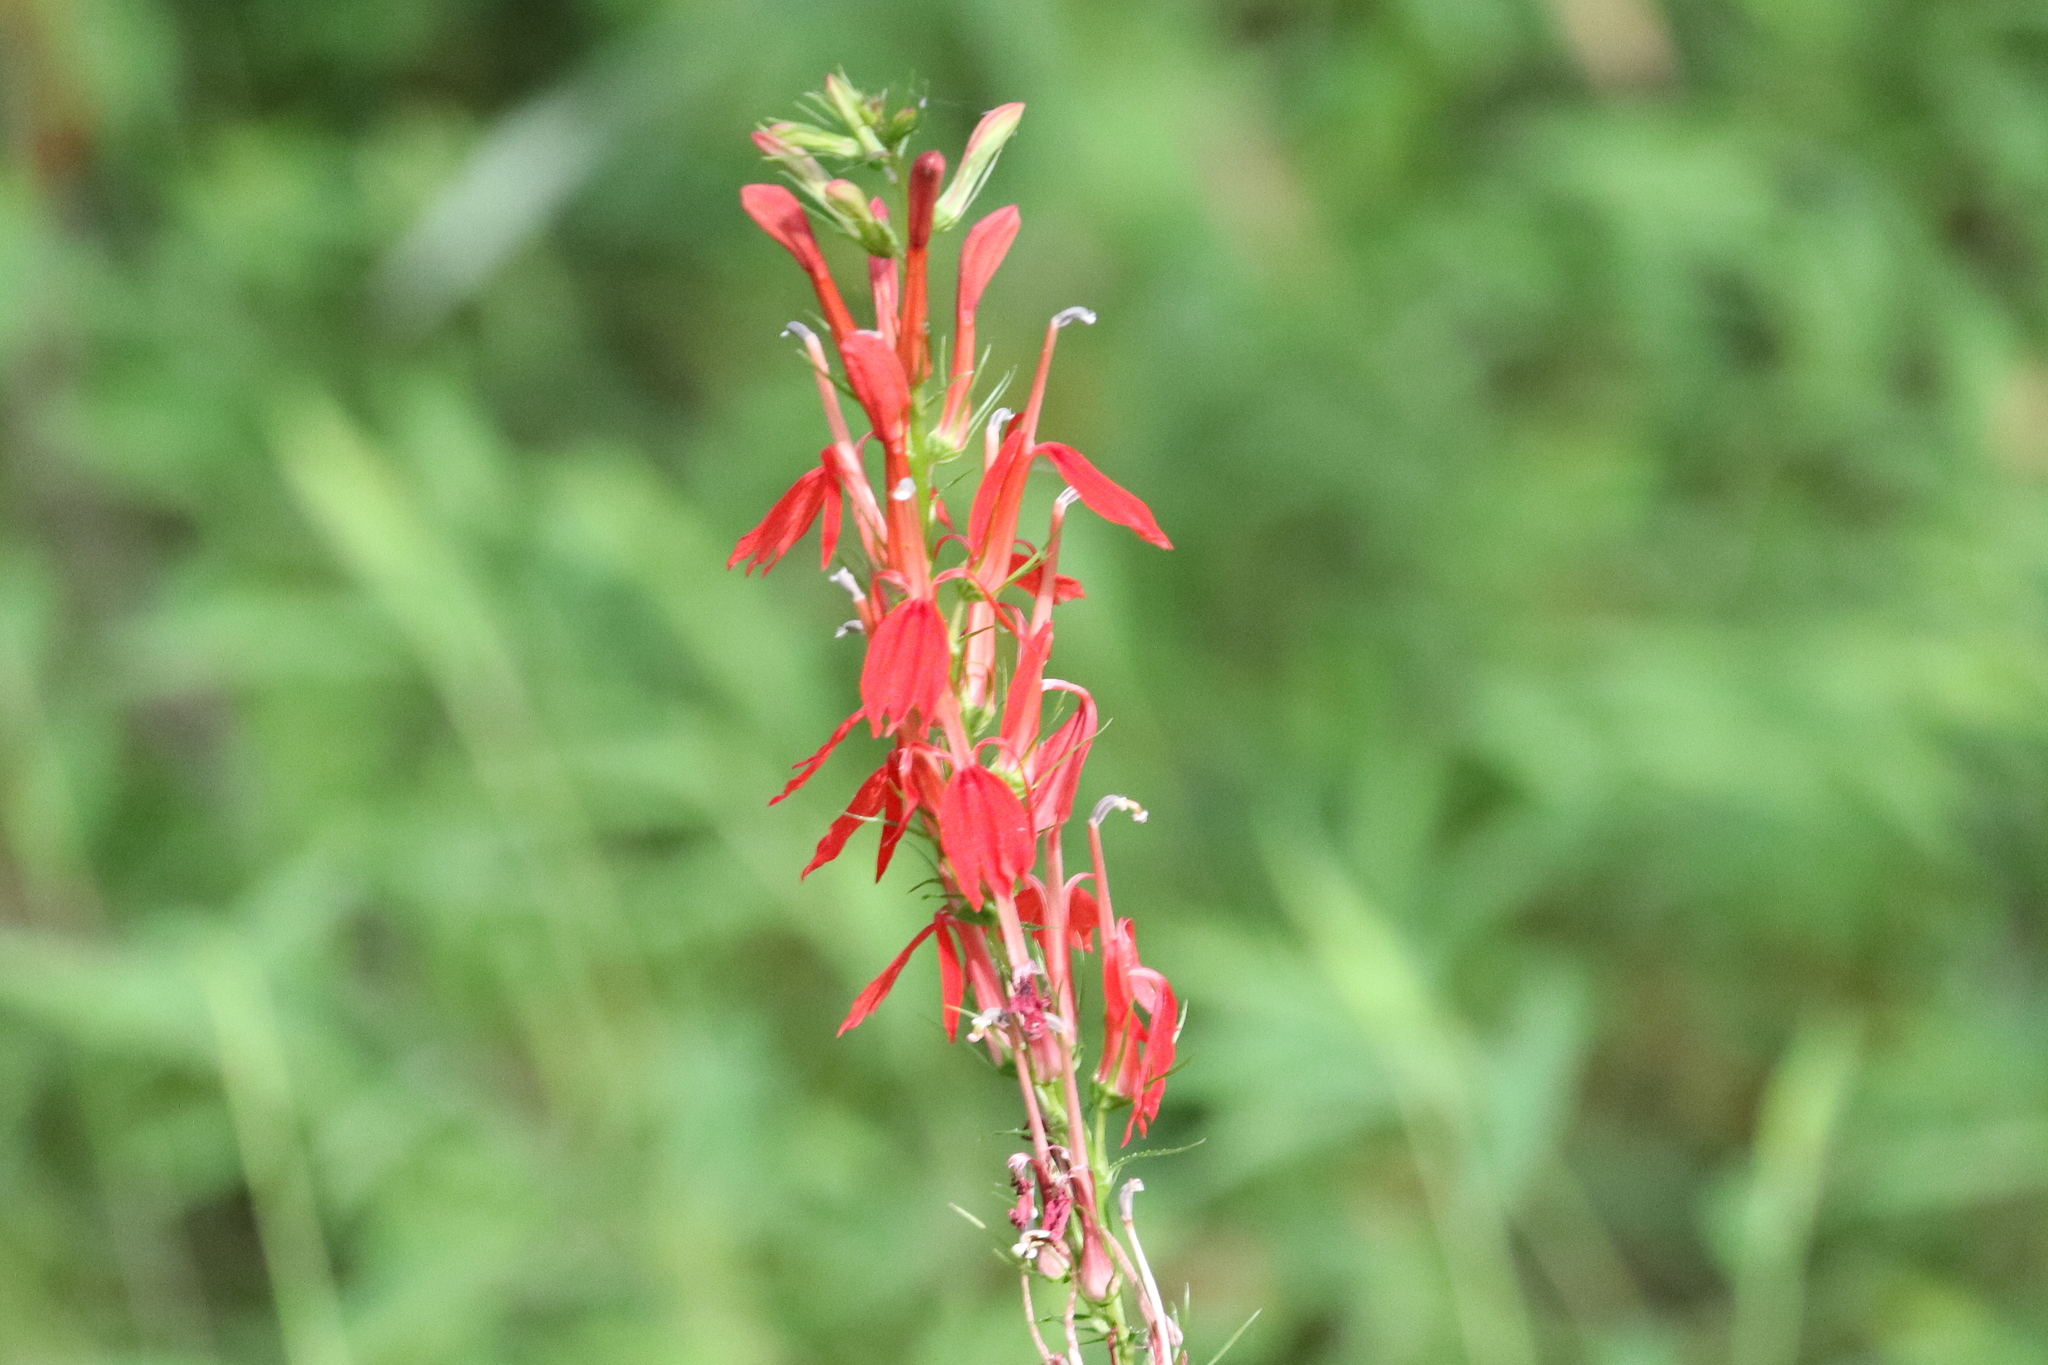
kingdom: Plantae
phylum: Tracheophyta
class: Magnoliopsida
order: Asterales
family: Campanulaceae
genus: Lobelia
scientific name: Lobelia cardinalis
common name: Cardinal flower
